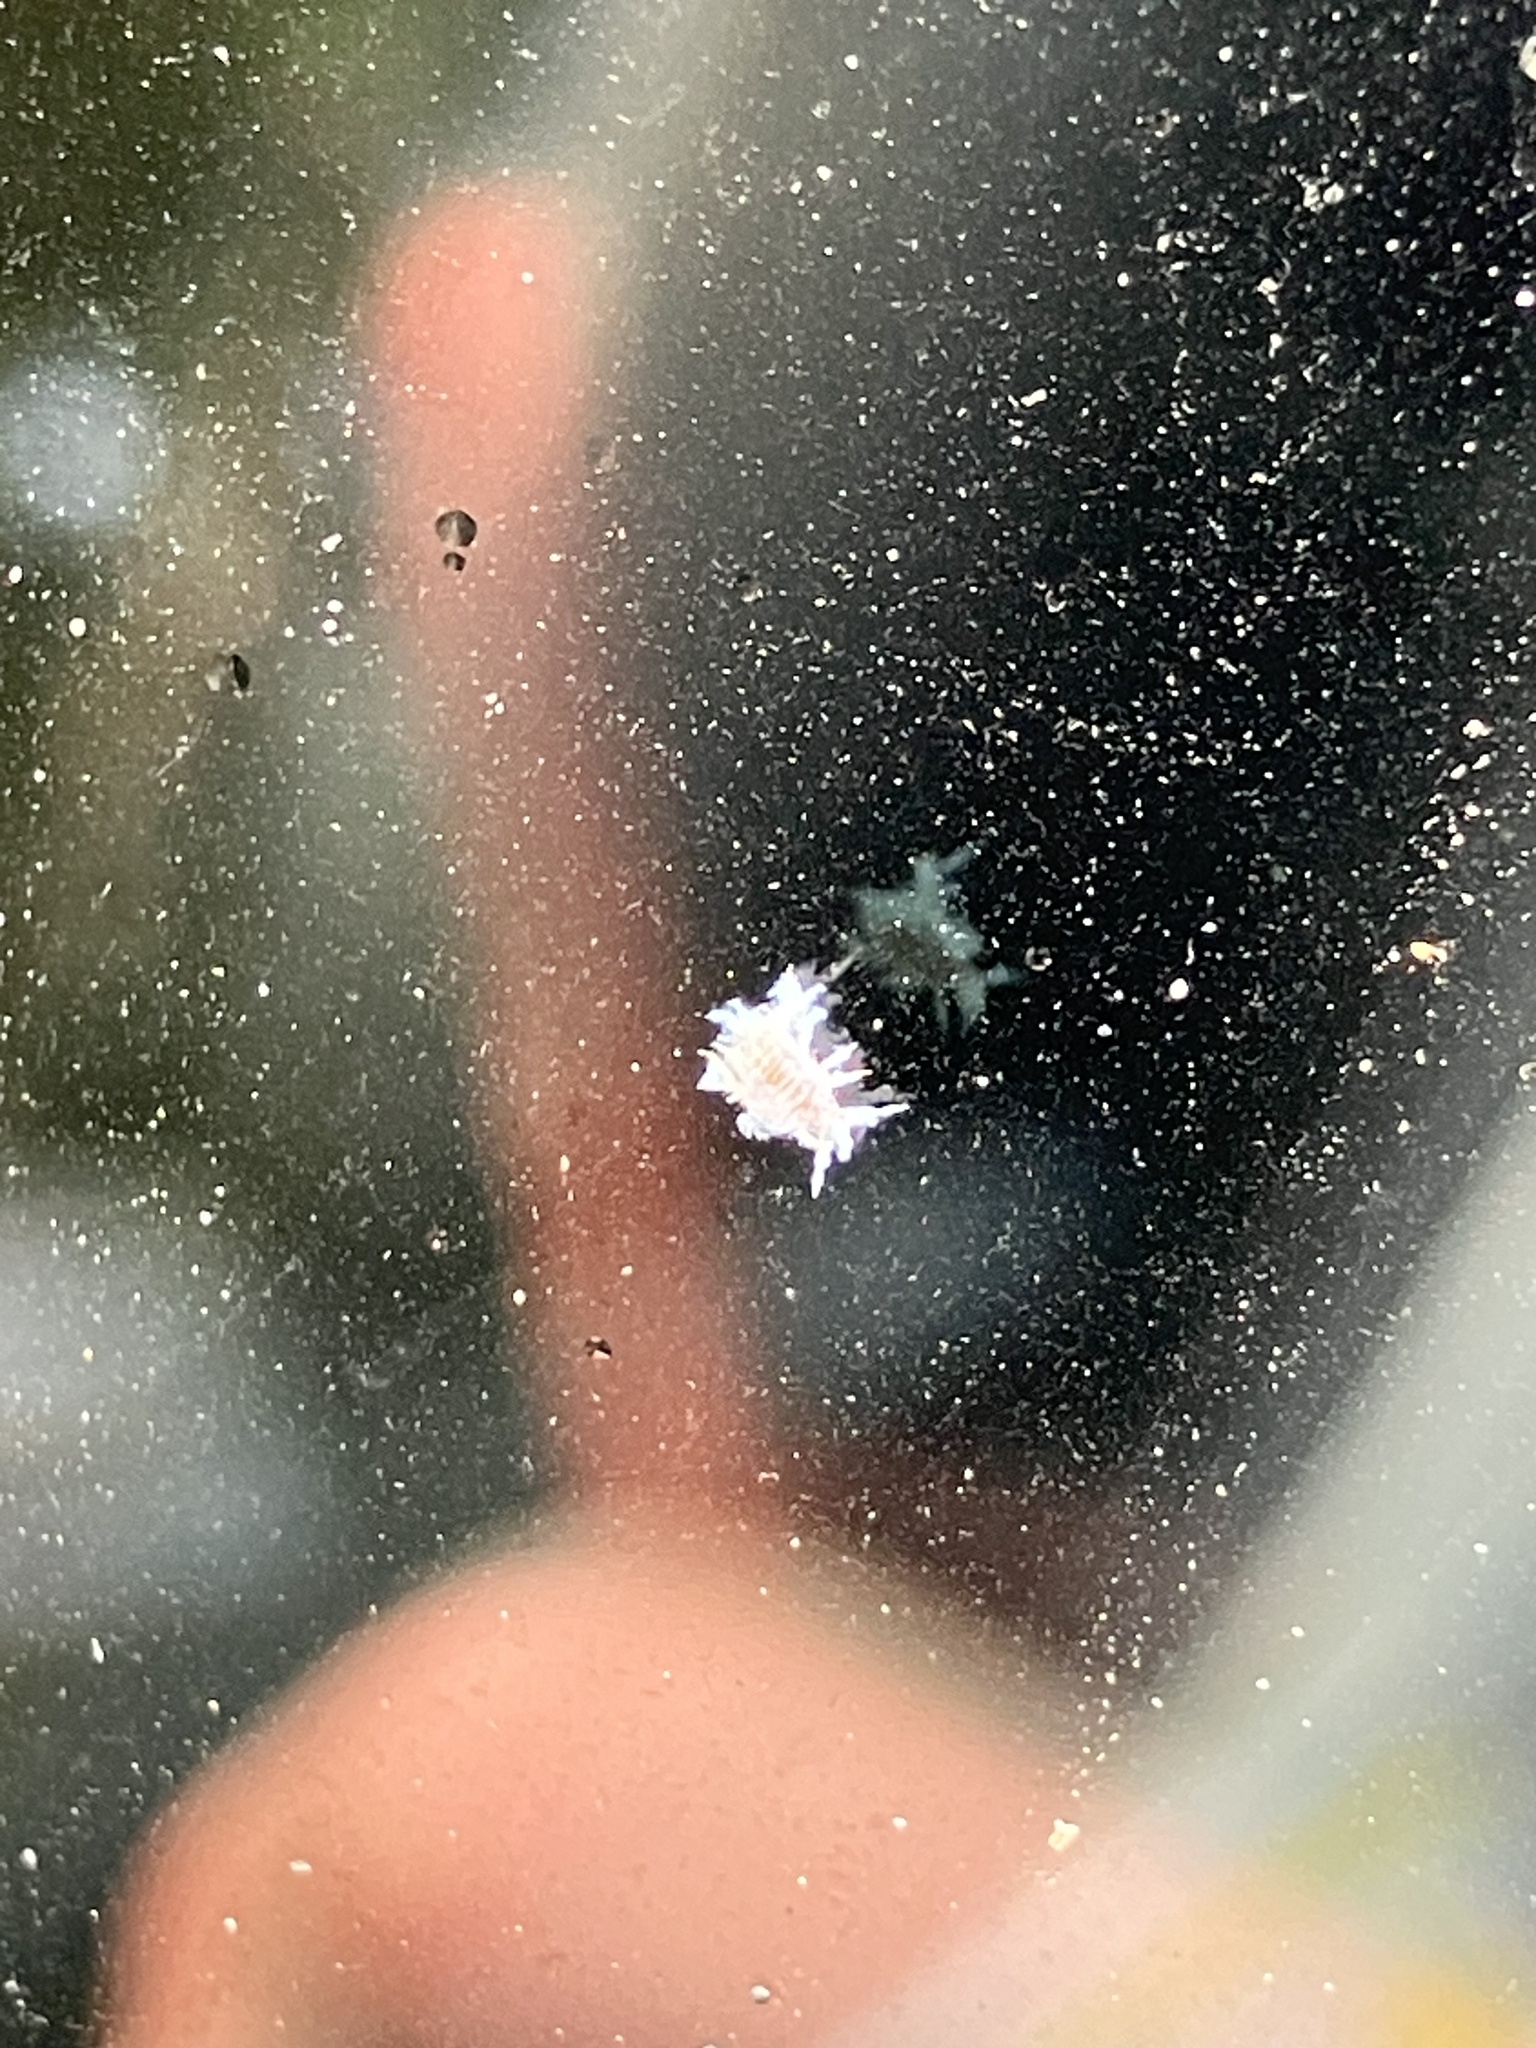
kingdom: Animalia
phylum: Arthropoda
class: Insecta
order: Hemiptera
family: Aphididae
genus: Shivaphis
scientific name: Shivaphis celti
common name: Asian wooly hackberry aphid
